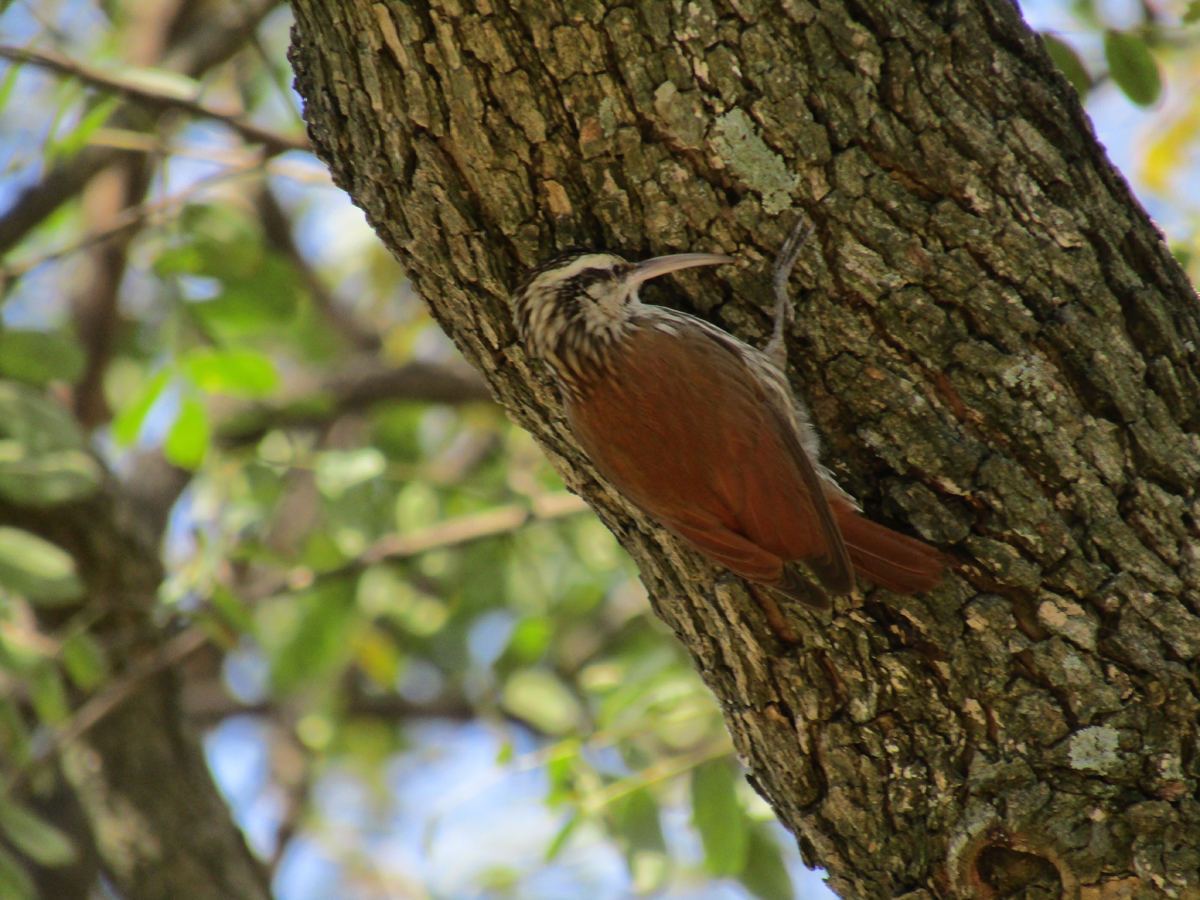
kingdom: Animalia
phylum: Chordata
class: Aves
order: Passeriformes
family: Furnariidae
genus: Lepidocolaptes
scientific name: Lepidocolaptes angustirostris
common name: Narrow-billed woodcreeper
